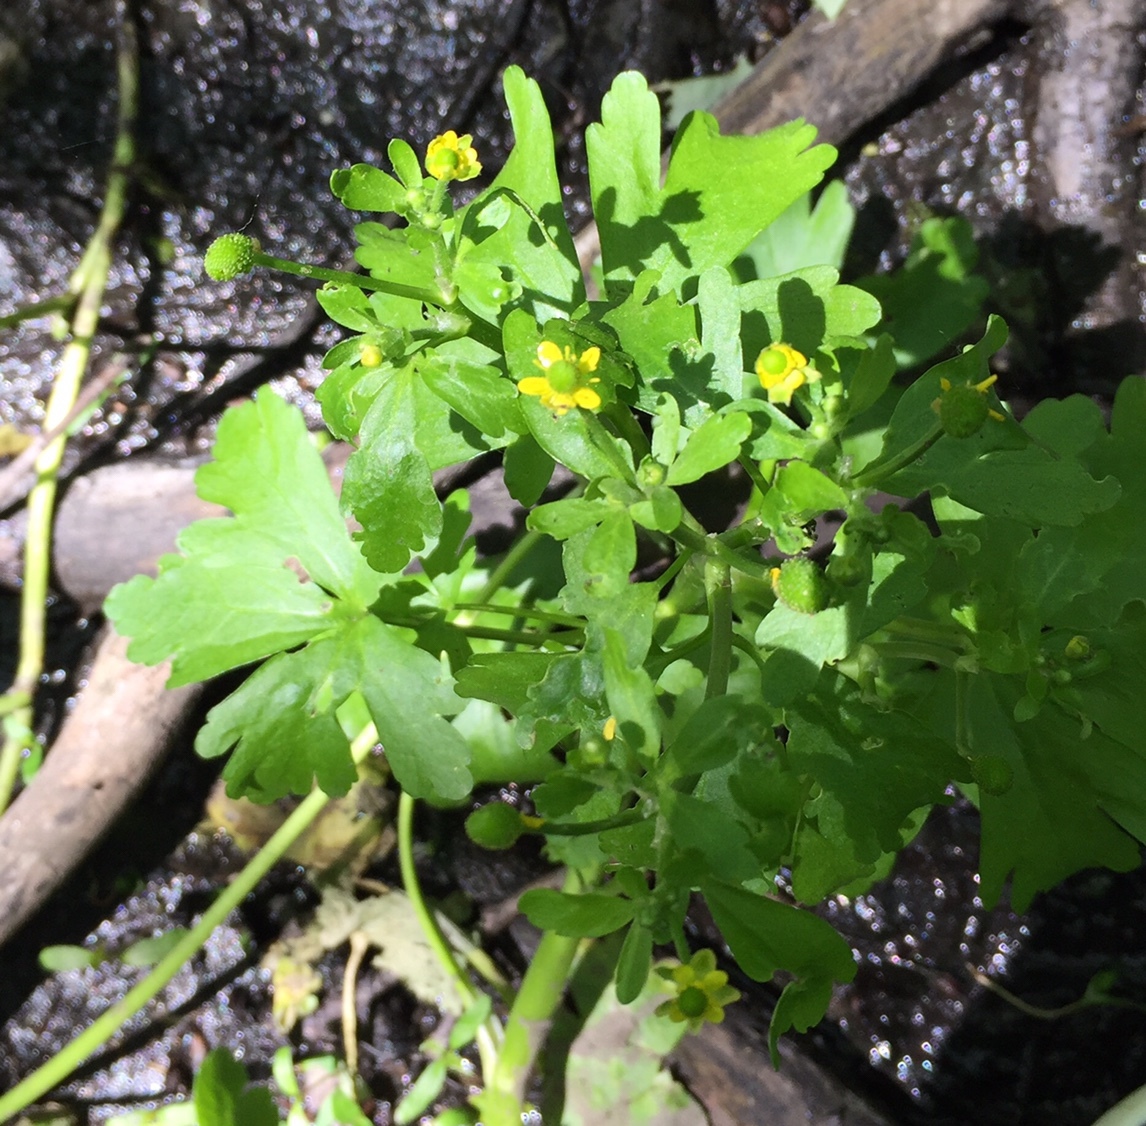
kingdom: Plantae
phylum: Tracheophyta
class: Magnoliopsida
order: Ranunculales
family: Ranunculaceae
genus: Ranunculus
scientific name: Ranunculus sceleratus
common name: Celery-leaved buttercup
